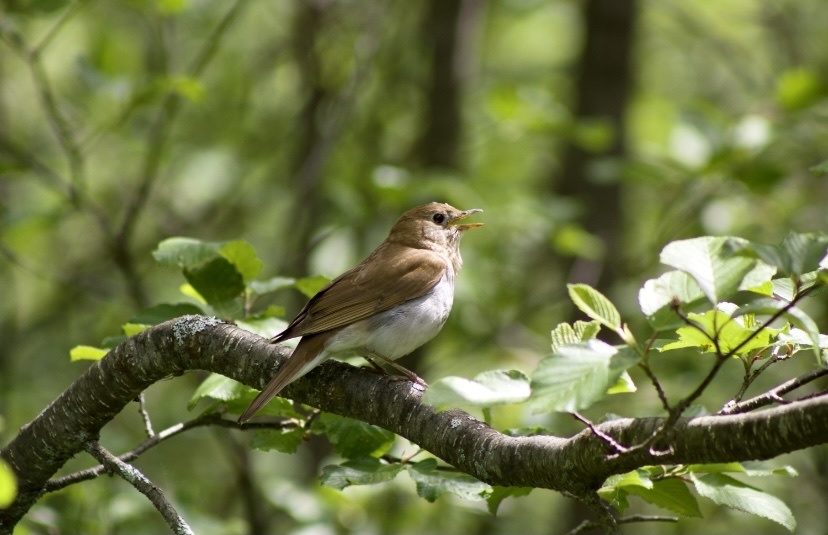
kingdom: Animalia
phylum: Chordata
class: Aves
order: Passeriformes
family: Turdidae
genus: Catharus
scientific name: Catharus fuscescens
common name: Veery
